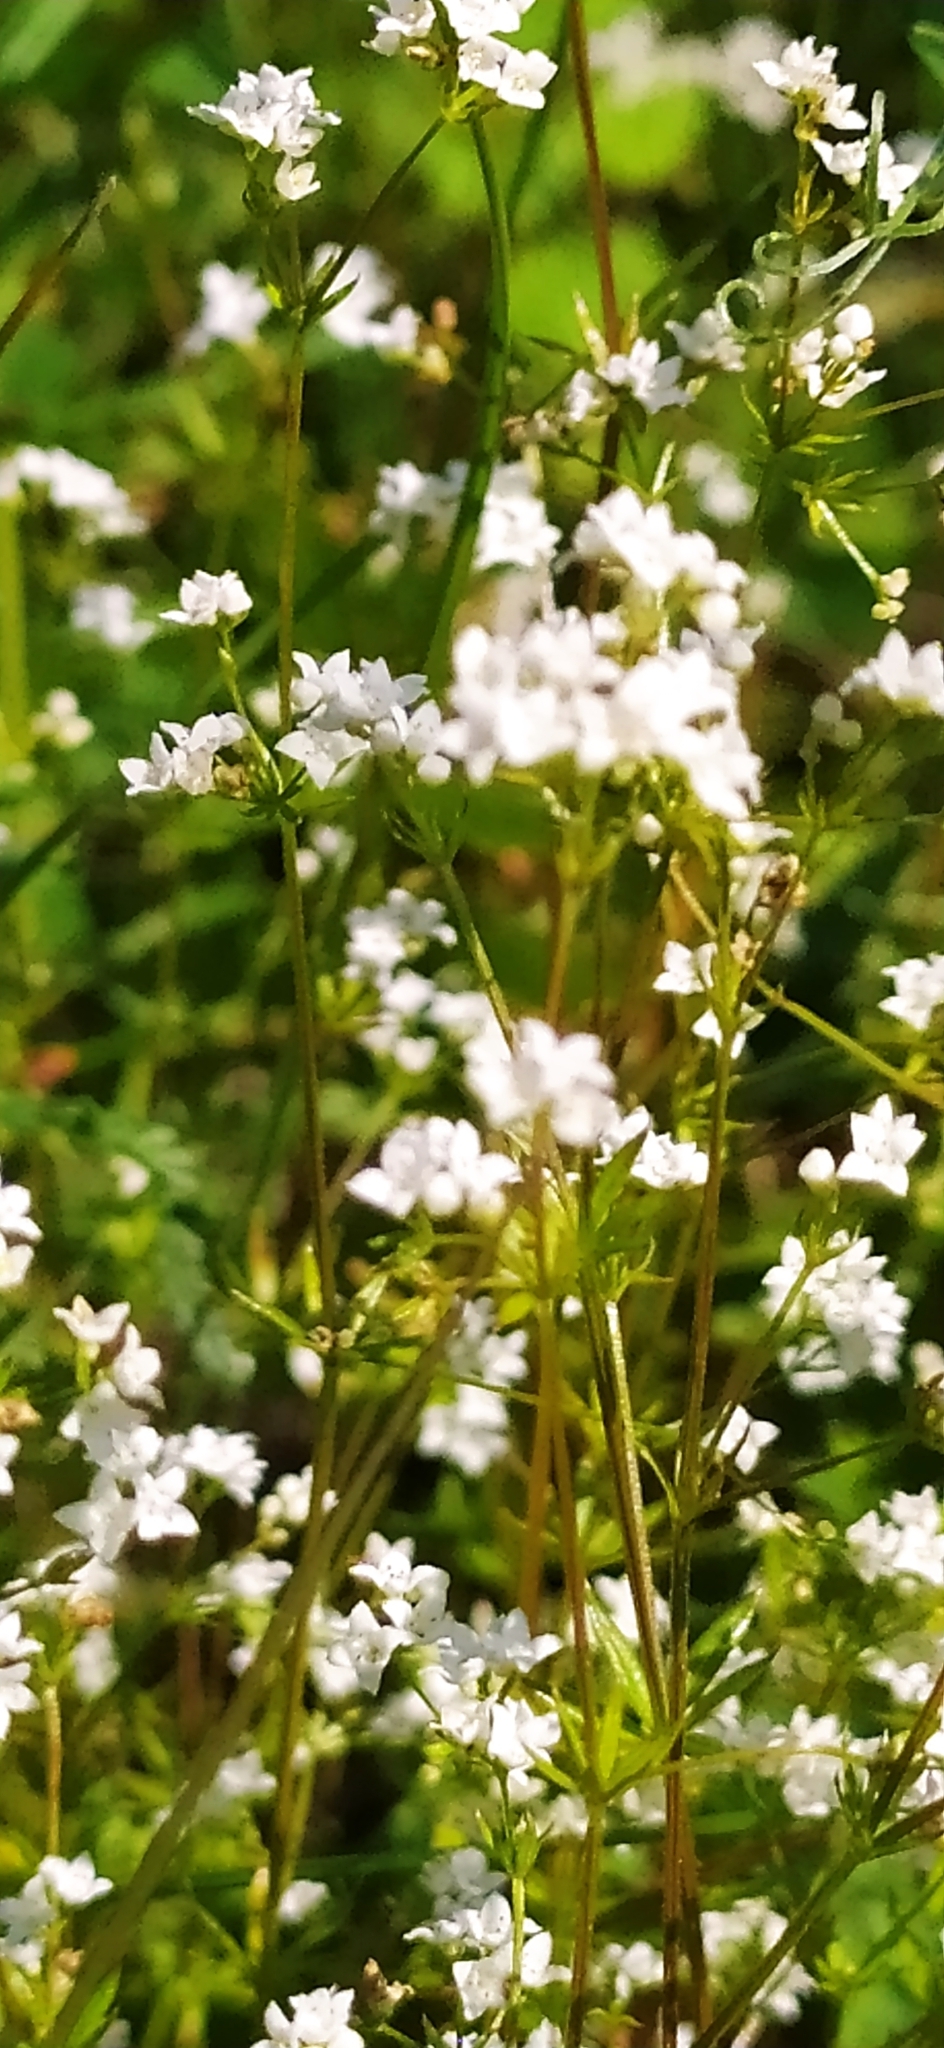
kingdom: Plantae
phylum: Tracheophyta
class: Magnoliopsida
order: Gentianales
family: Rubiaceae
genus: Galium
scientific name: Galium uliginosum
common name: Fen bedstraw
